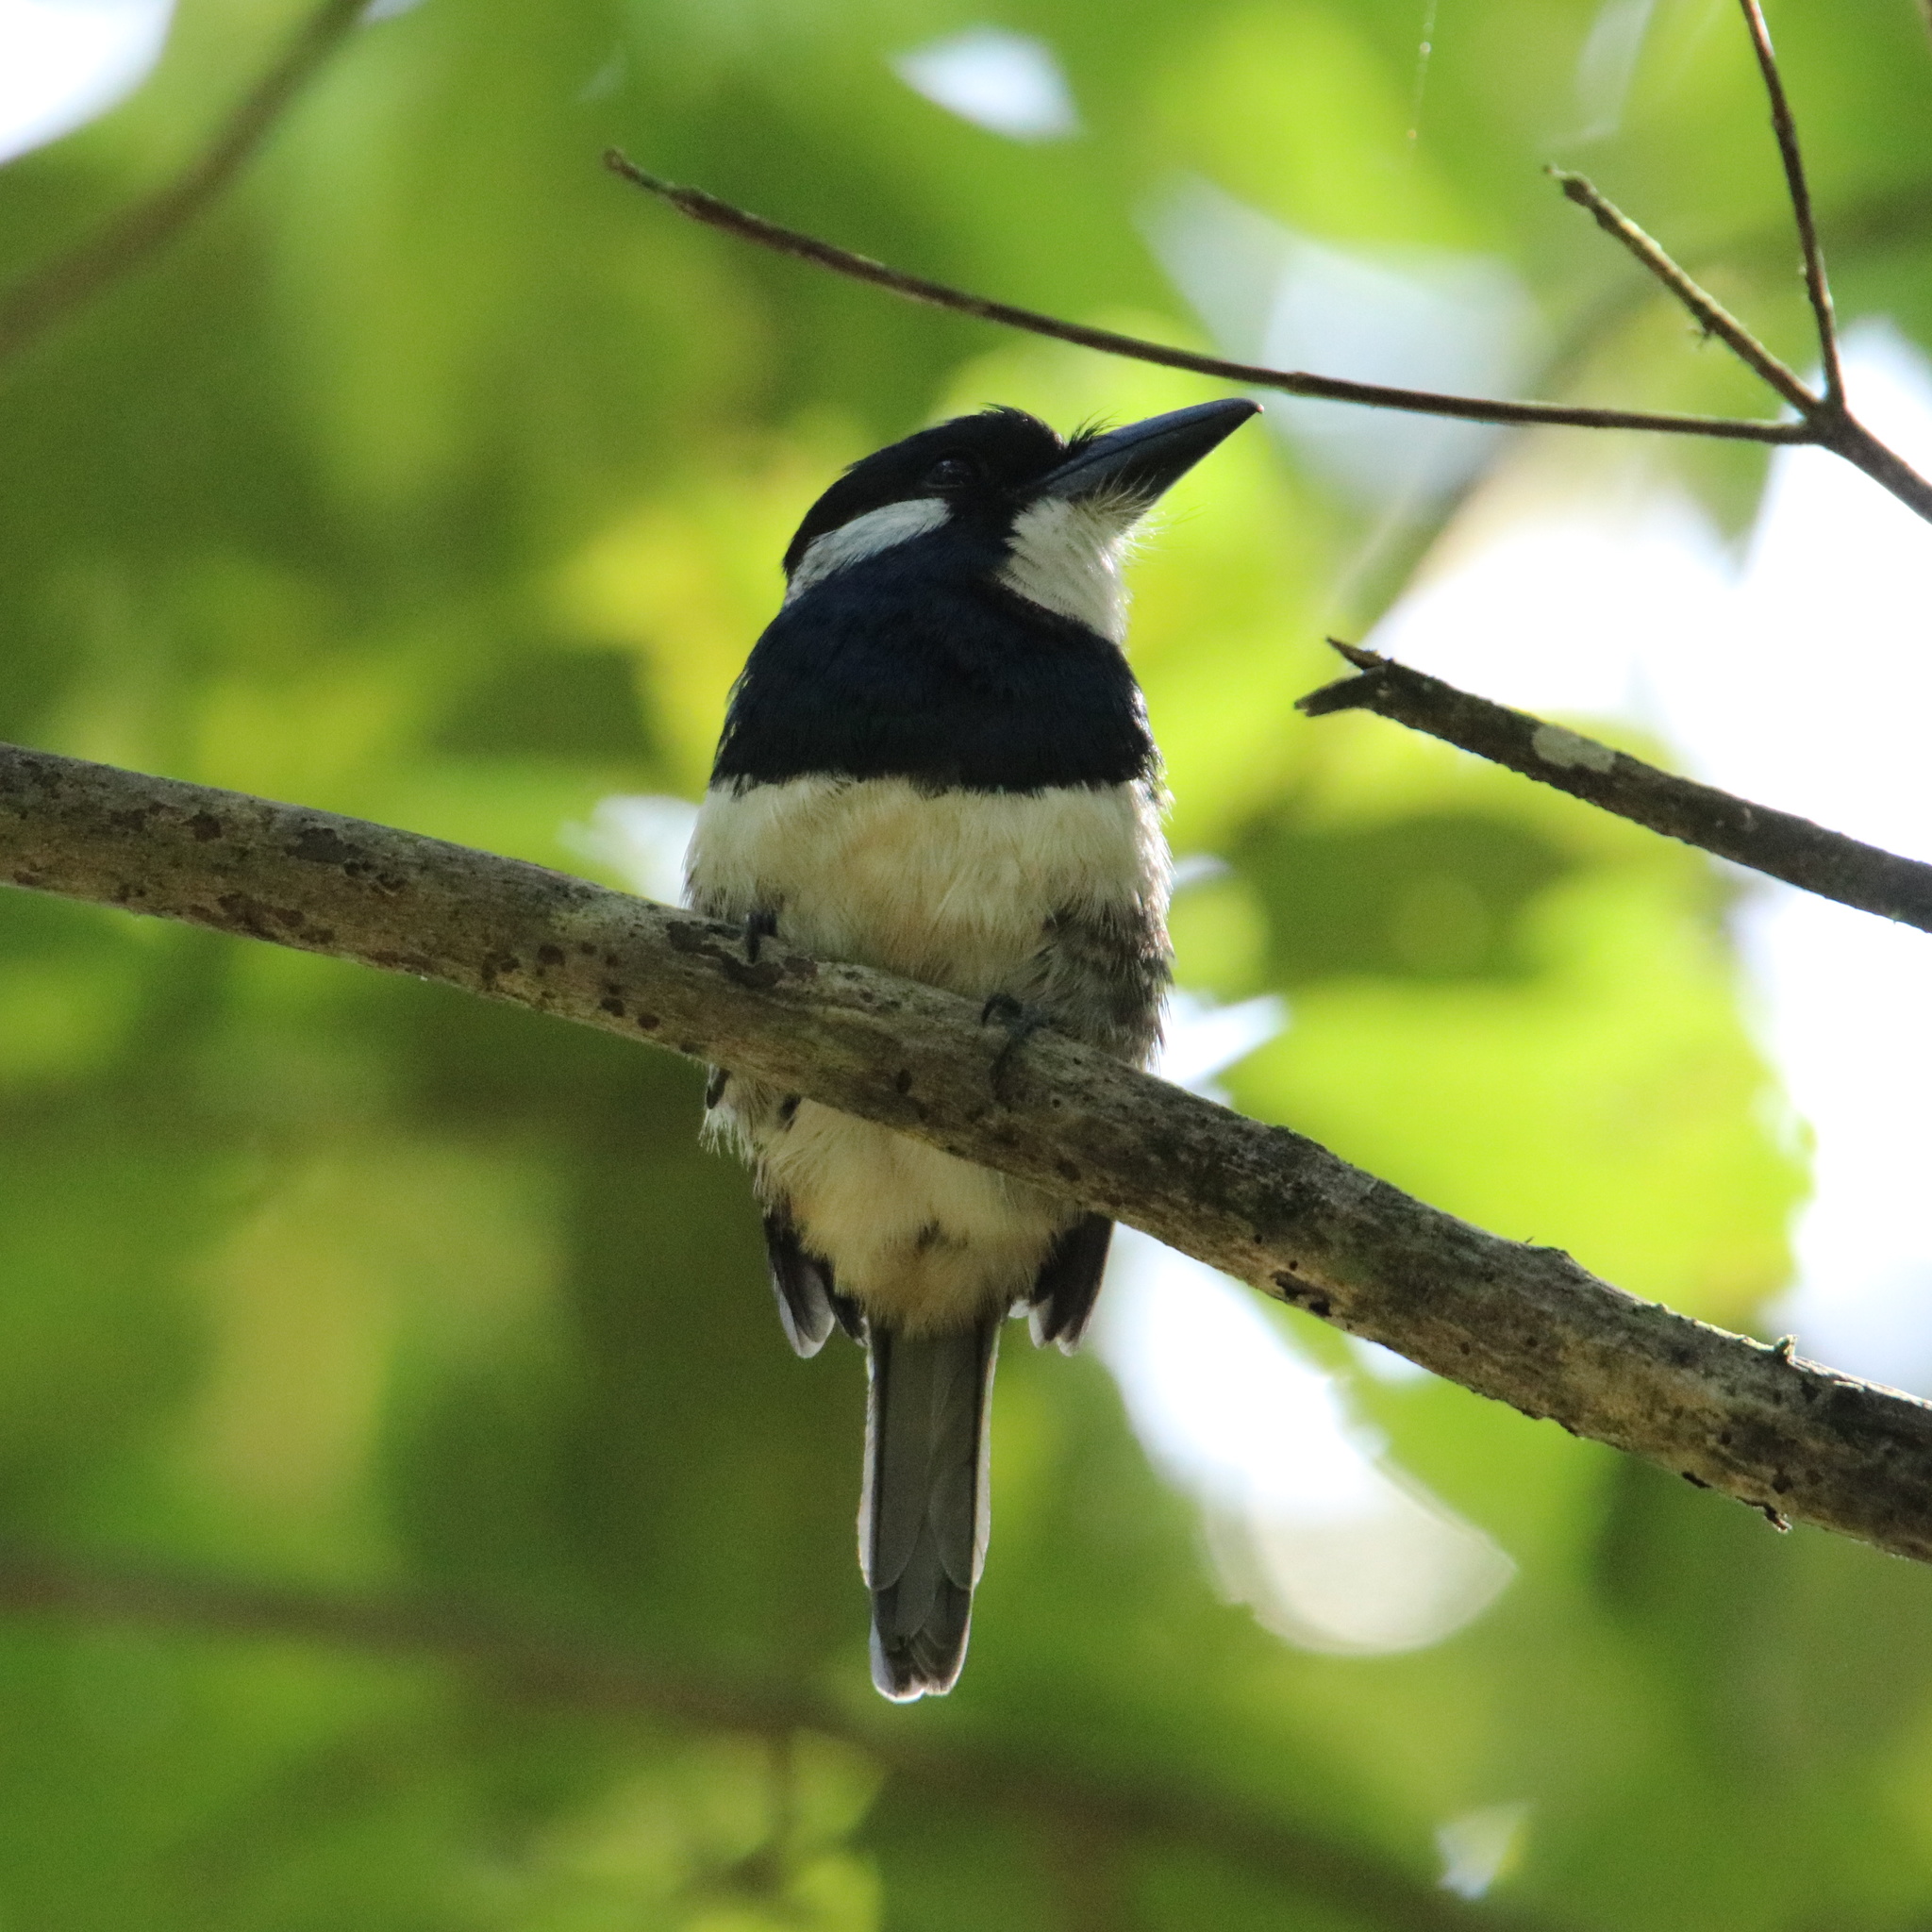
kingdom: Animalia
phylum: Chordata
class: Aves
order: Piciformes
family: Bucconidae
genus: Notharchus
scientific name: Notharchus pectoralis
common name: Black-breasted puffbird
